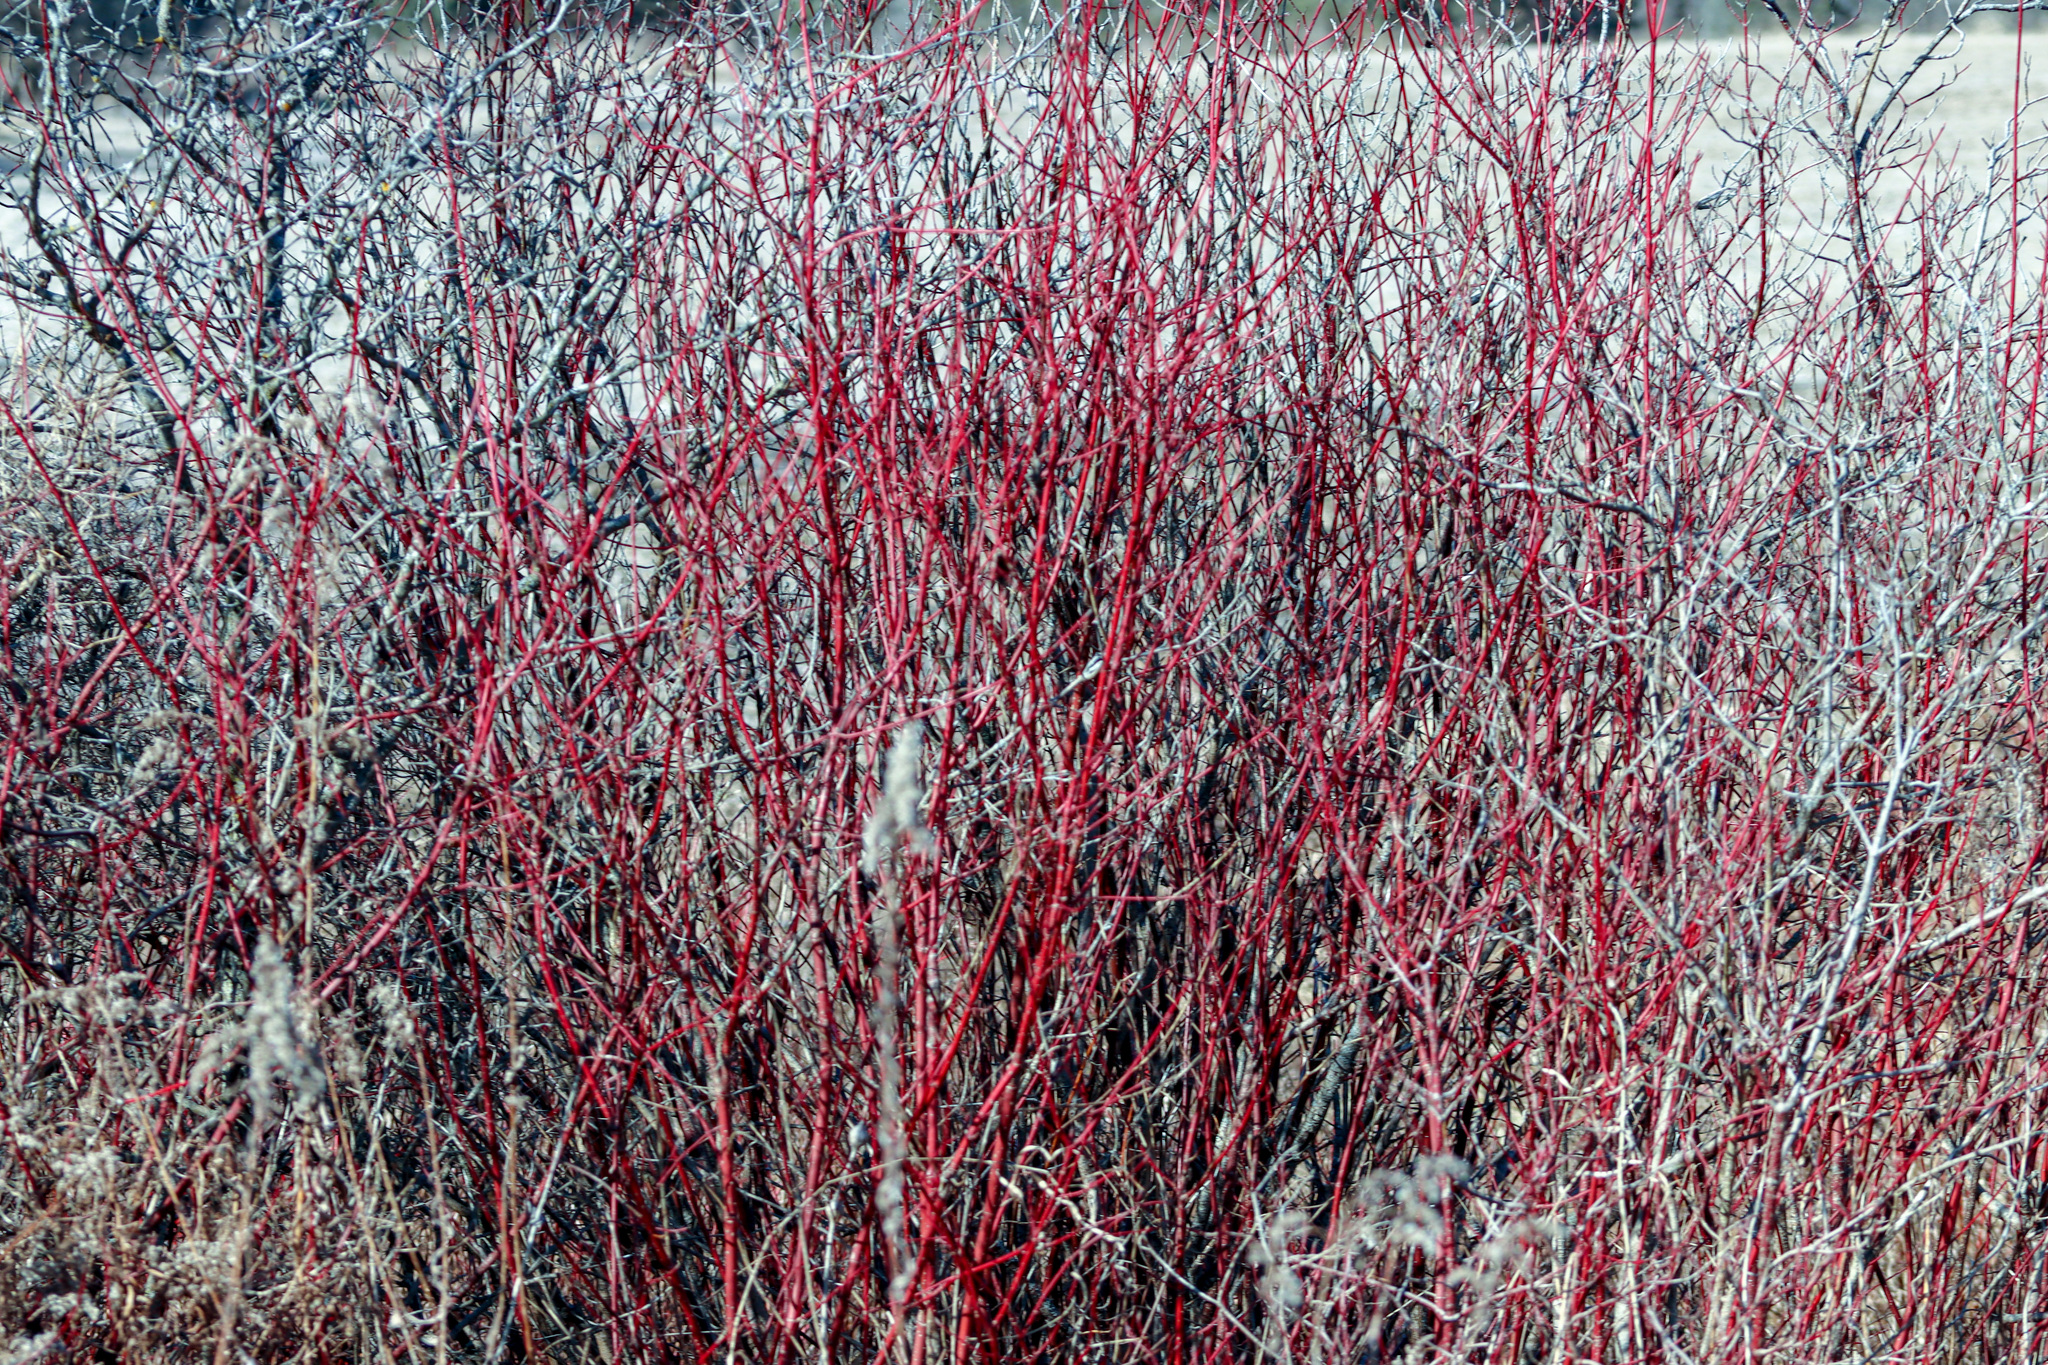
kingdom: Plantae
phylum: Tracheophyta
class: Magnoliopsida
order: Cornales
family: Cornaceae
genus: Cornus
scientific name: Cornus sericea
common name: Red-osier dogwood
